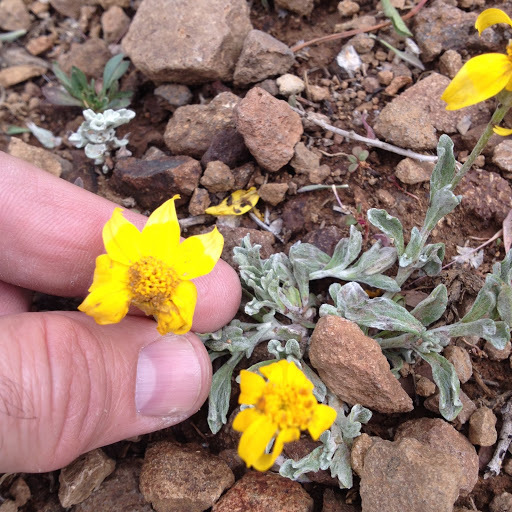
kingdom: Plantae
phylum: Tracheophyta
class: Magnoliopsida
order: Asterales
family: Asteraceae
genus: Eriophyllum
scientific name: Eriophyllum lanatum
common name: Common woolly-sunflower
